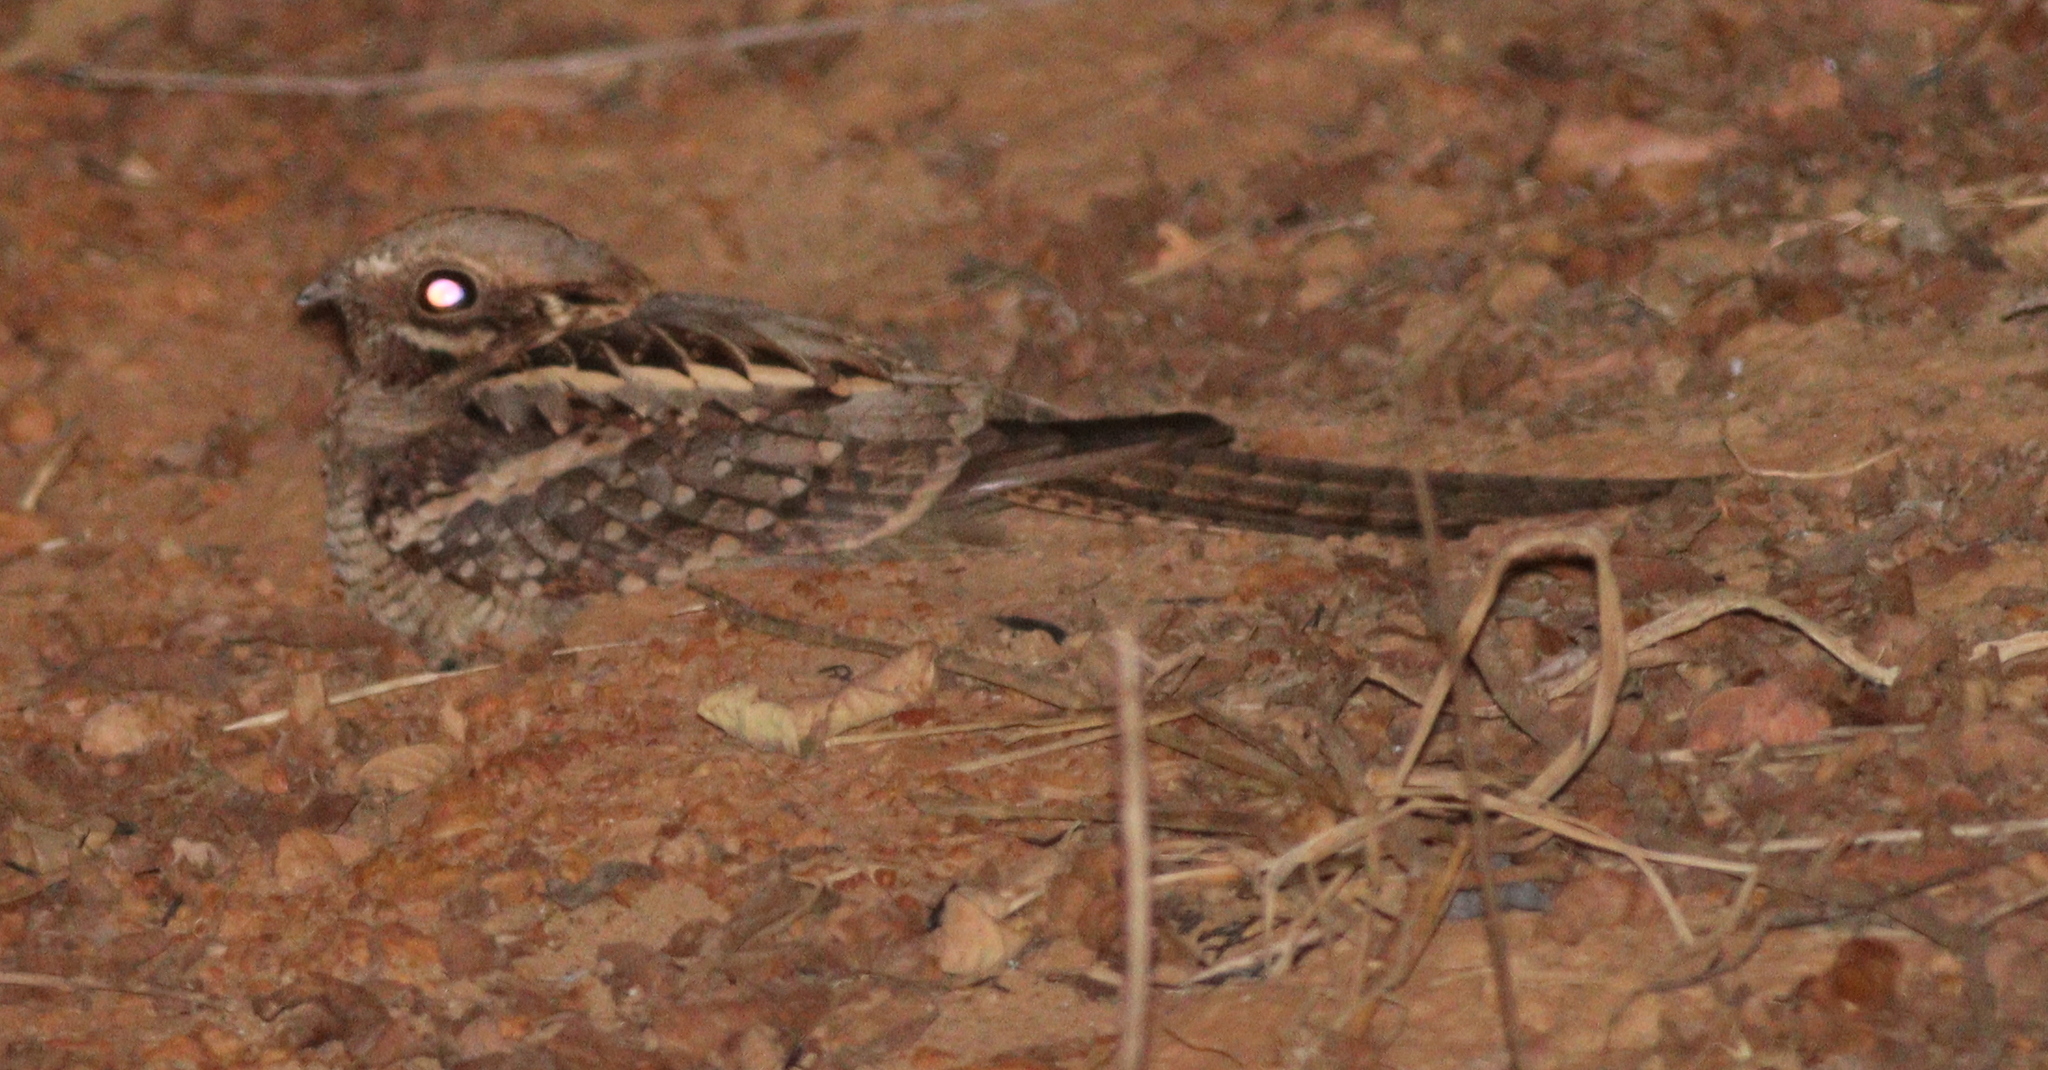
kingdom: Animalia
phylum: Chordata
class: Aves
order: Caprimulgiformes
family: Caprimulgidae
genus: Caprimulgus
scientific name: Caprimulgus climacurus
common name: Long-tailed nightjar
